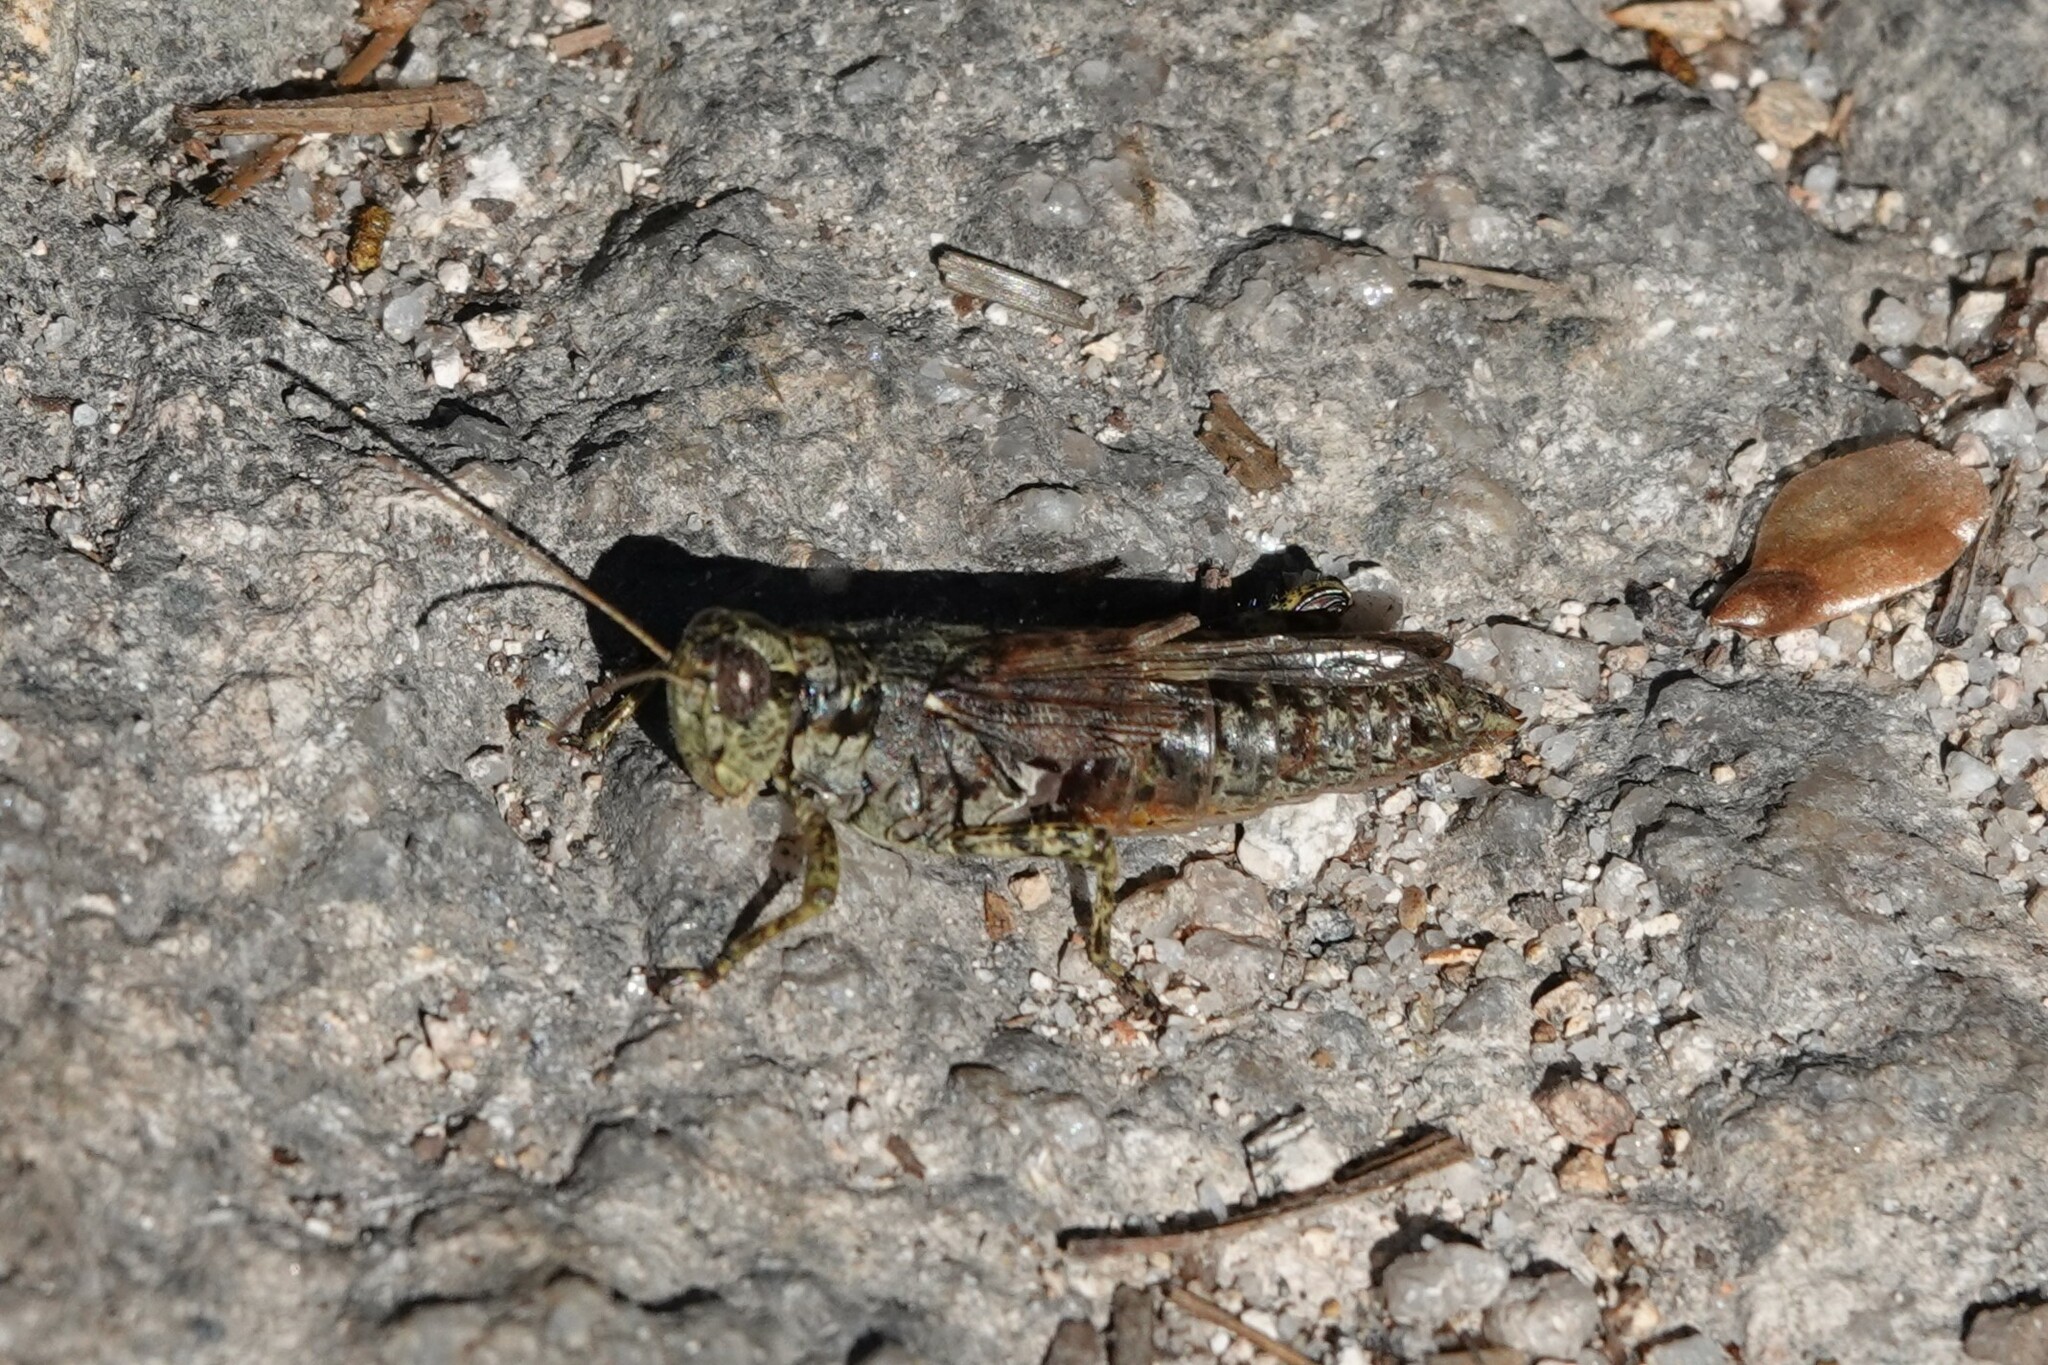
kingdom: Animalia
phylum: Arthropoda
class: Insecta
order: Orthoptera
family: Acrididae
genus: Melanoplus
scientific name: Melanoplus punctulatus
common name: Pine-tree spur-throat grasshopper
